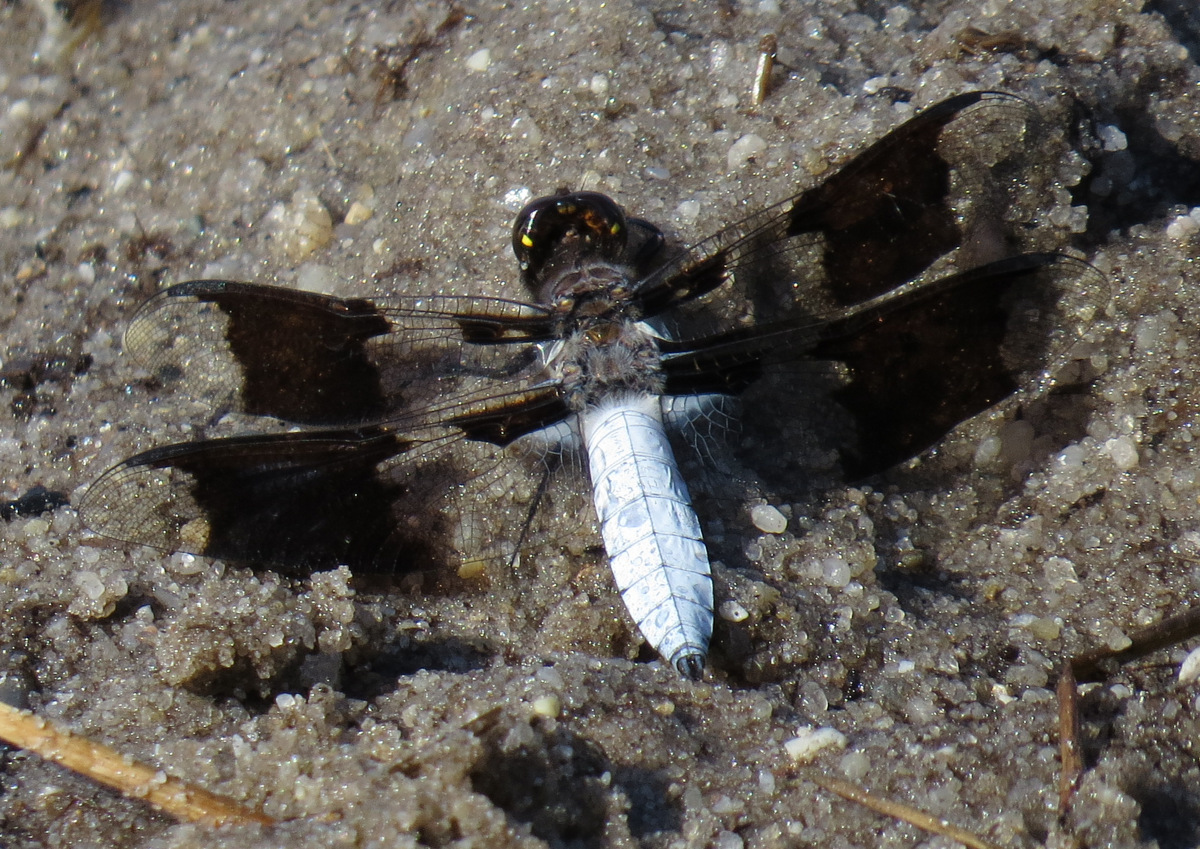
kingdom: Animalia
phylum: Arthropoda
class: Insecta
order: Odonata
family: Libellulidae
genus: Plathemis
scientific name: Plathemis lydia
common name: Common whitetail
